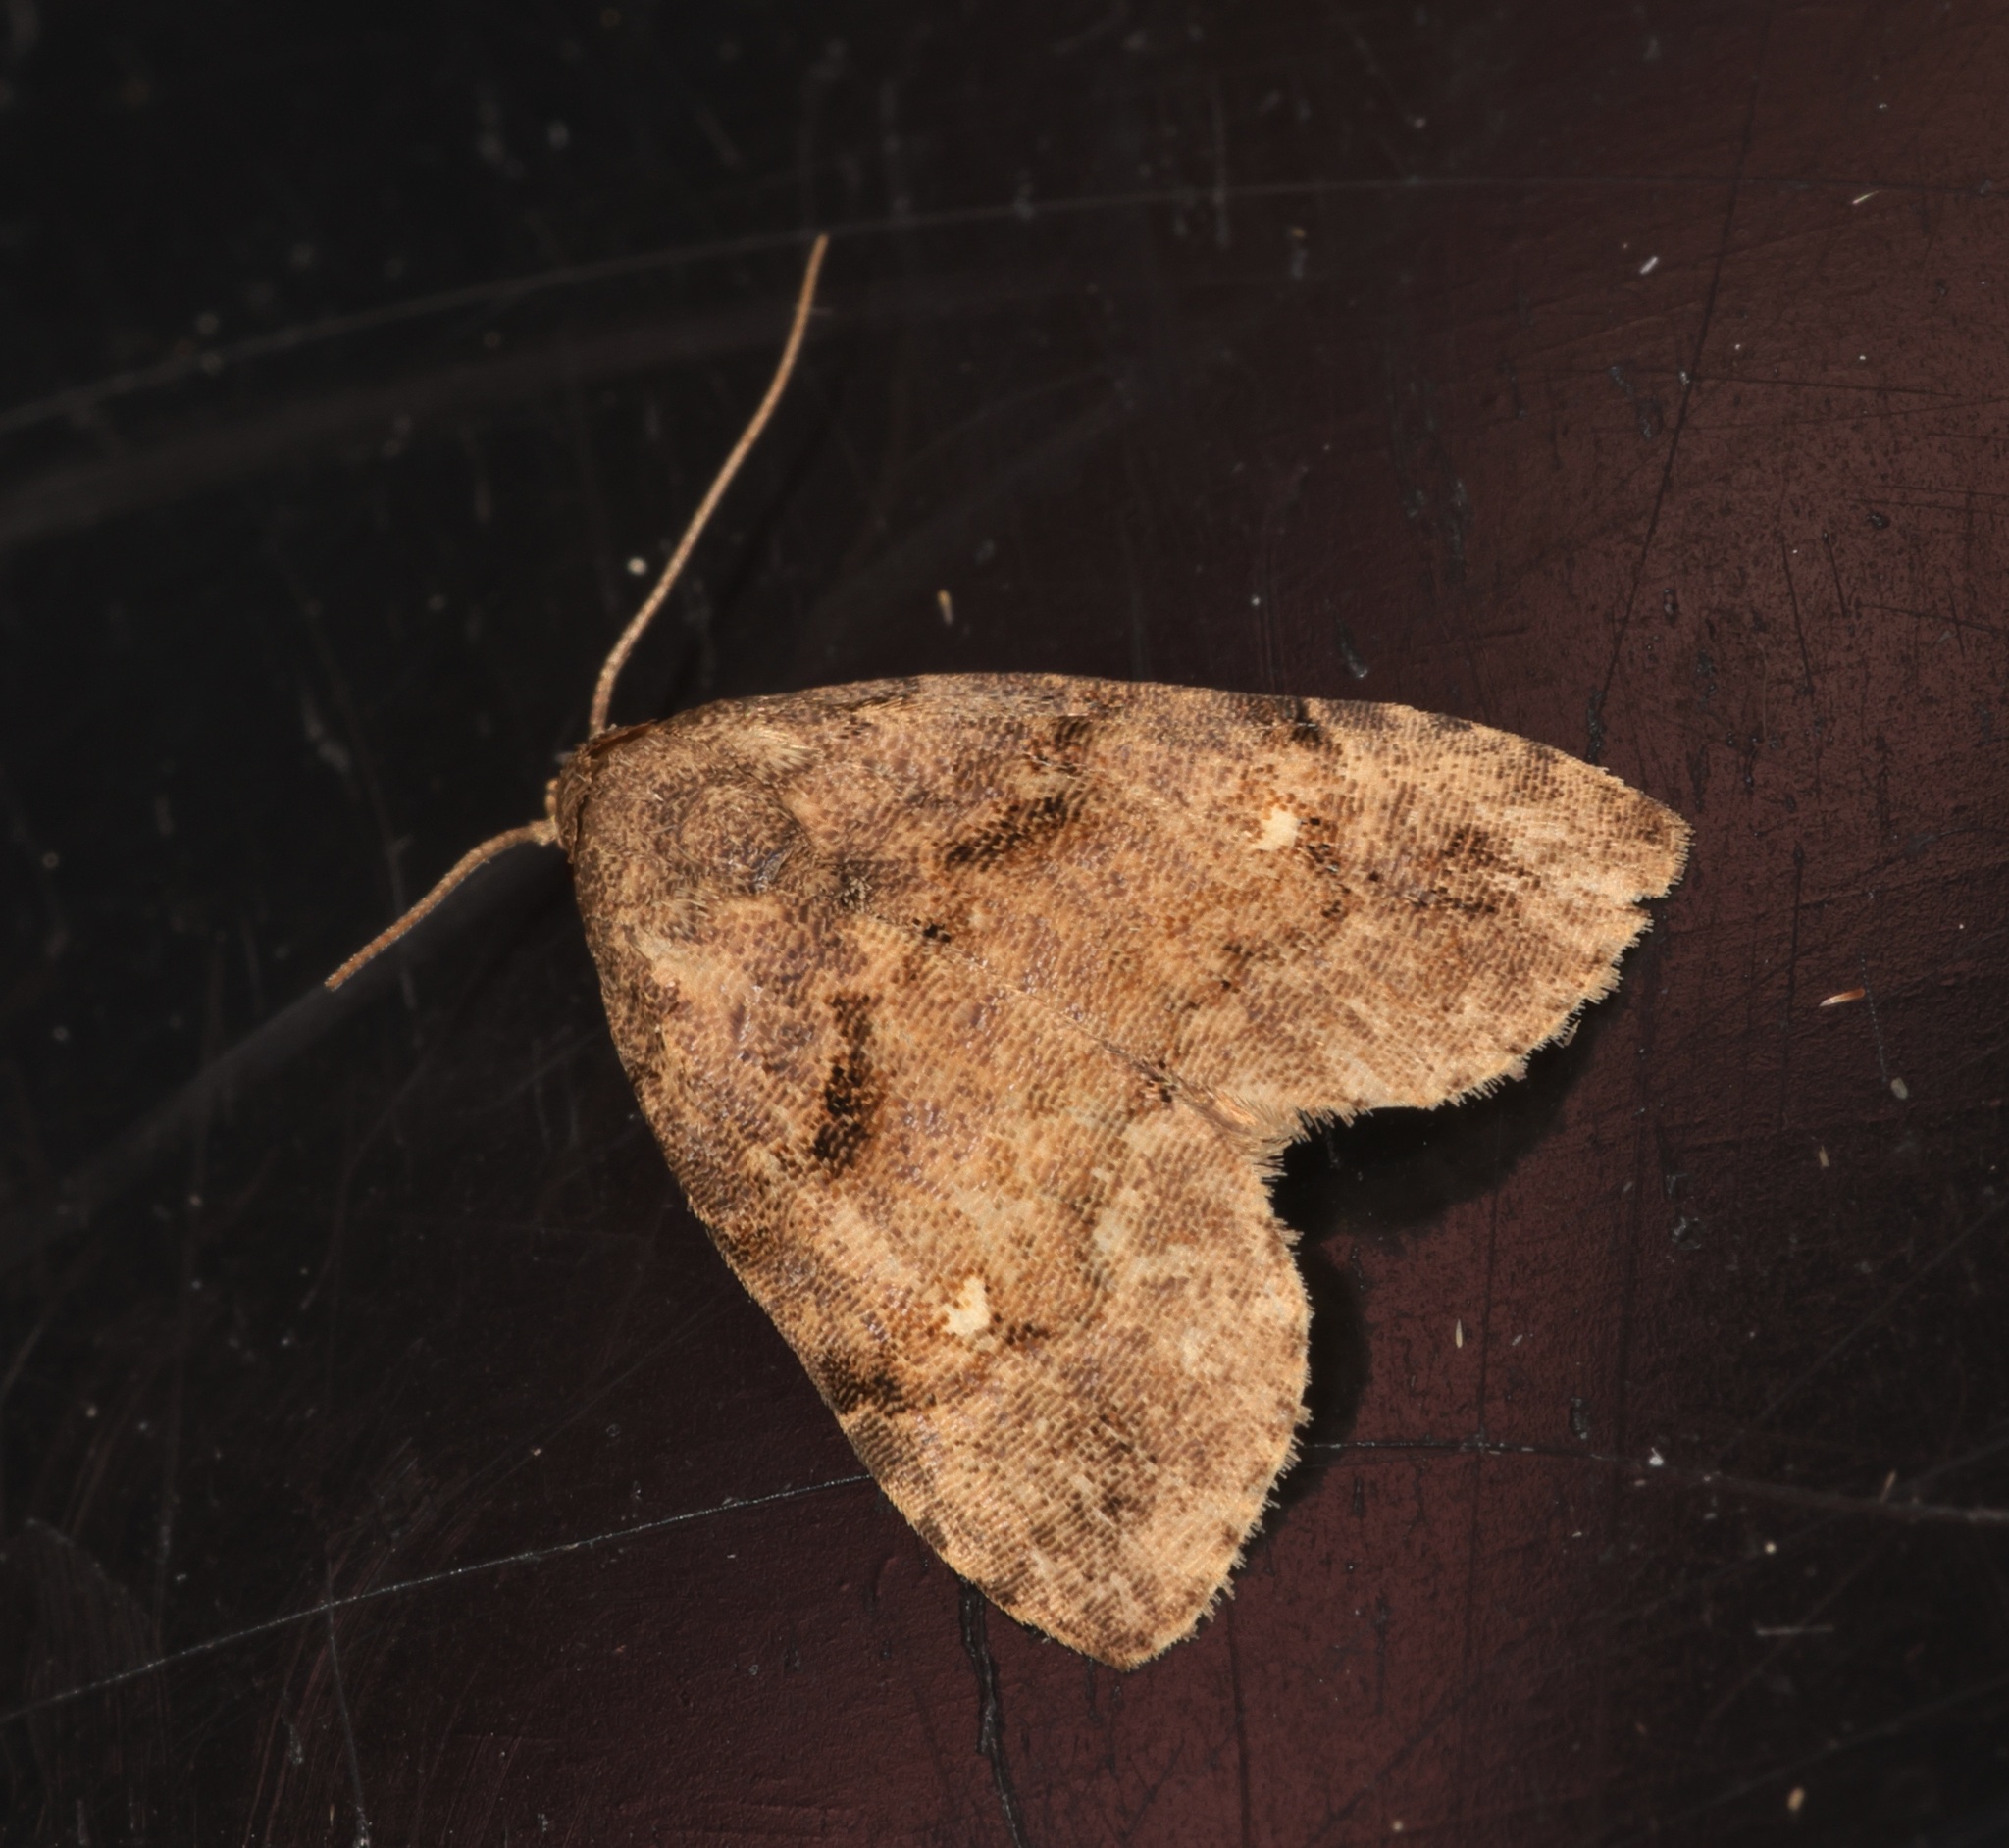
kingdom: Animalia
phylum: Arthropoda
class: Insecta
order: Lepidoptera
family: Erebidae
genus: Bellulia
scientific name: Bellulia galsworthyi
